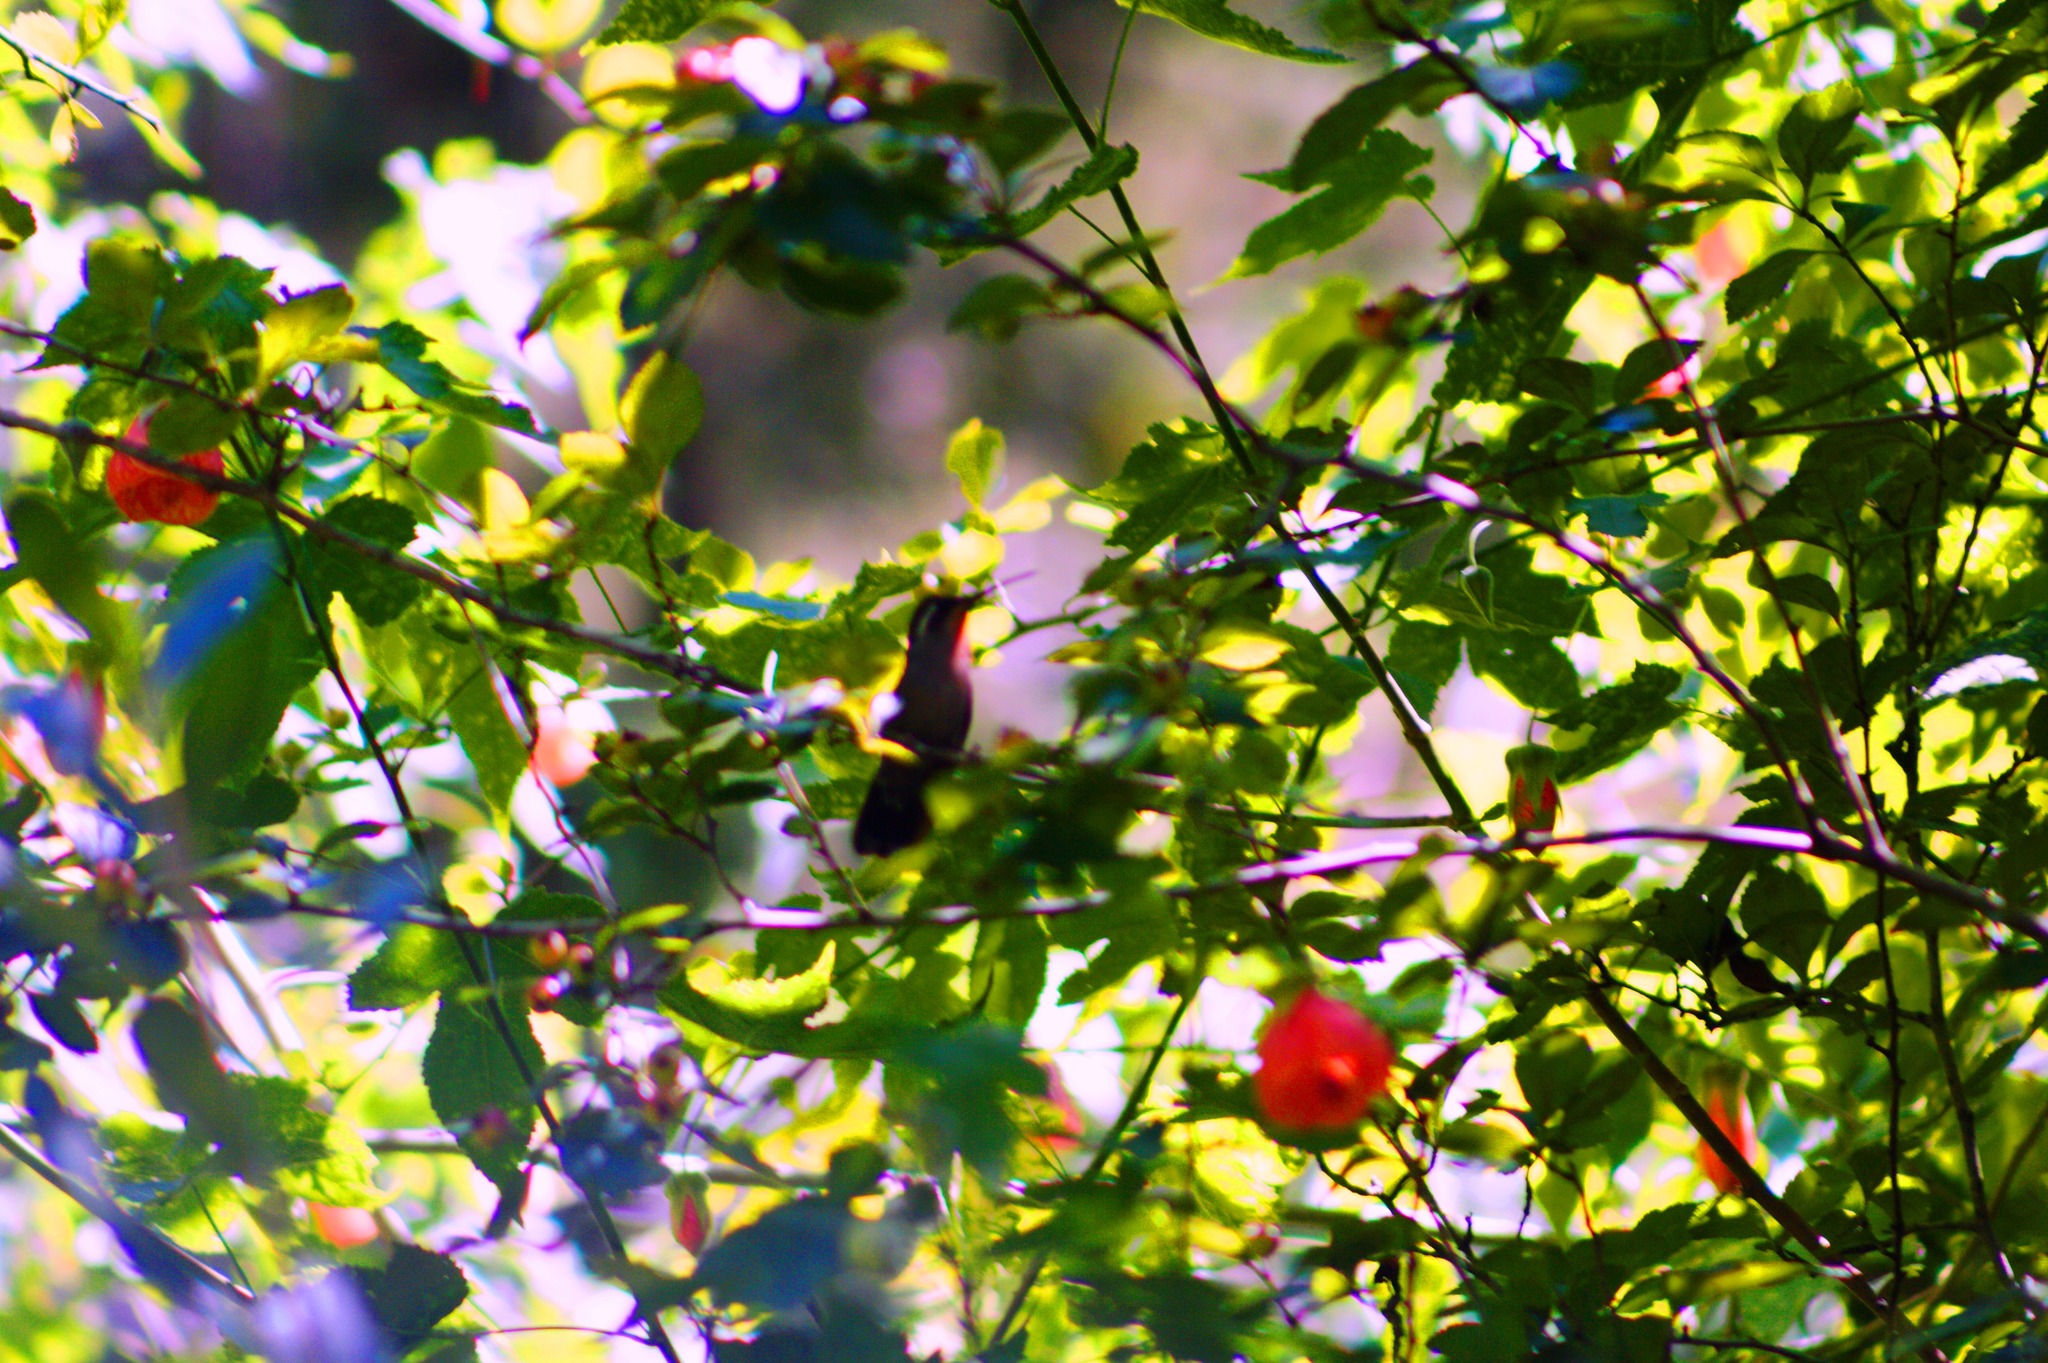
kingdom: Animalia
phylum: Chordata
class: Aves
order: Apodiformes
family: Trochilidae
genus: Basilinna
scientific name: Basilinna leucotis
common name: White-eared hummingbird
